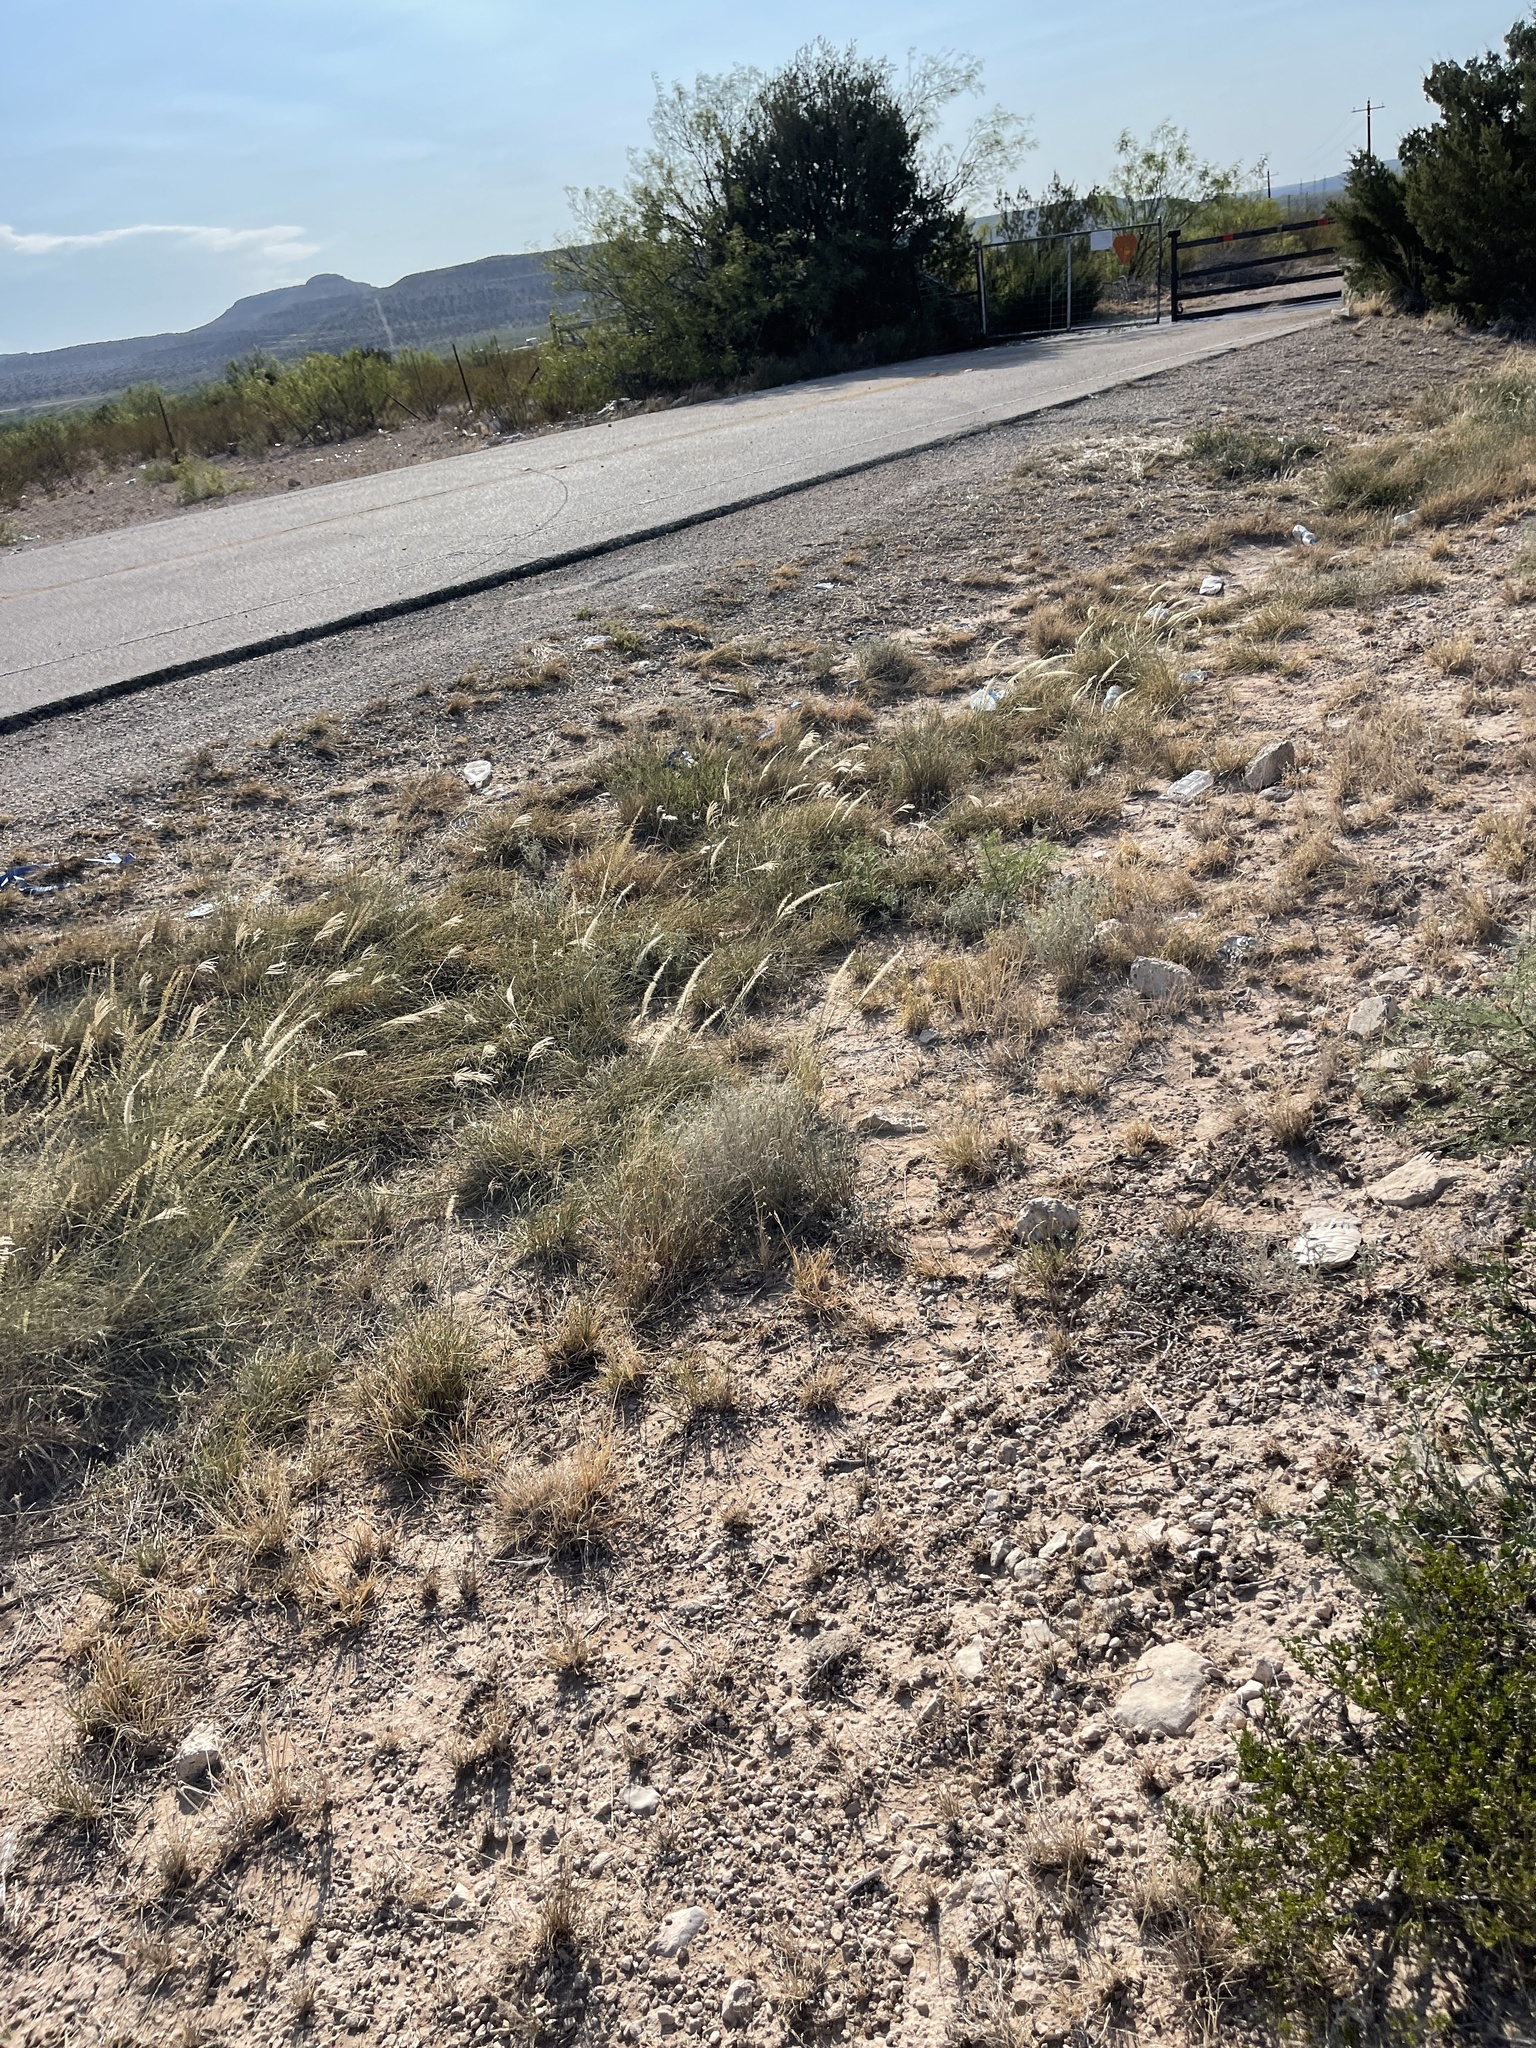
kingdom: Plantae
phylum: Tracheophyta
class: Liliopsida
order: Poales
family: Poaceae
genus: Pappophorum
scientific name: Pappophorum
